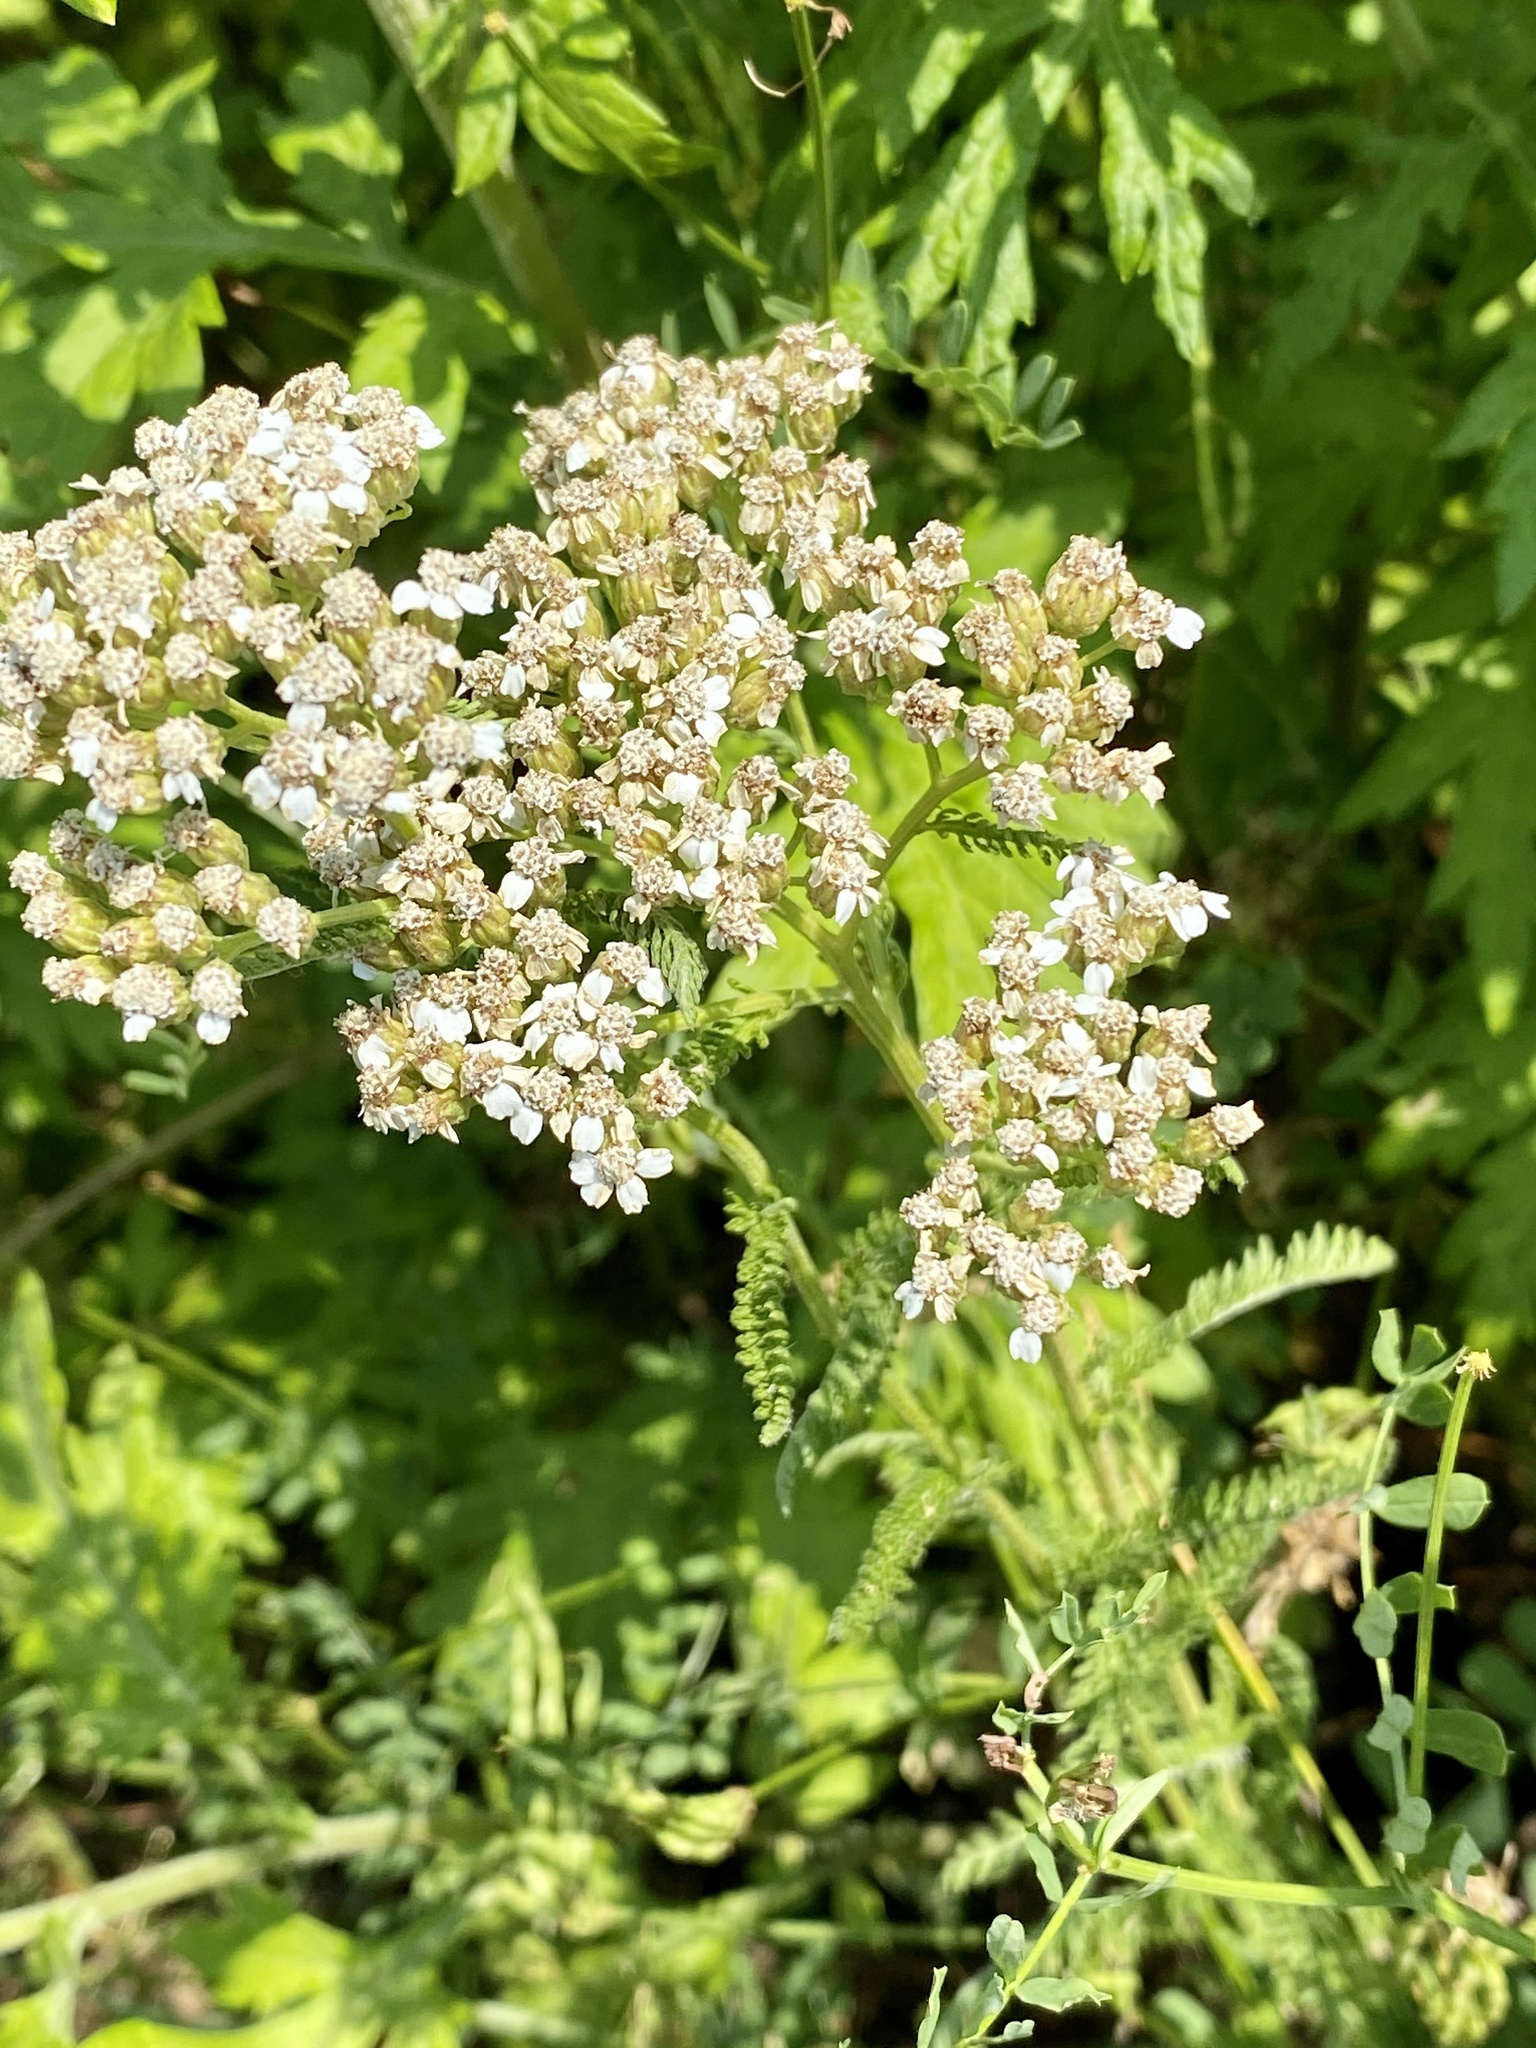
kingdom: Plantae
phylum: Tracheophyta
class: Magnoliopsida
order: Asterales
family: Asteraceae
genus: Achillea
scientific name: Achillea millefolium
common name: Yarrow
